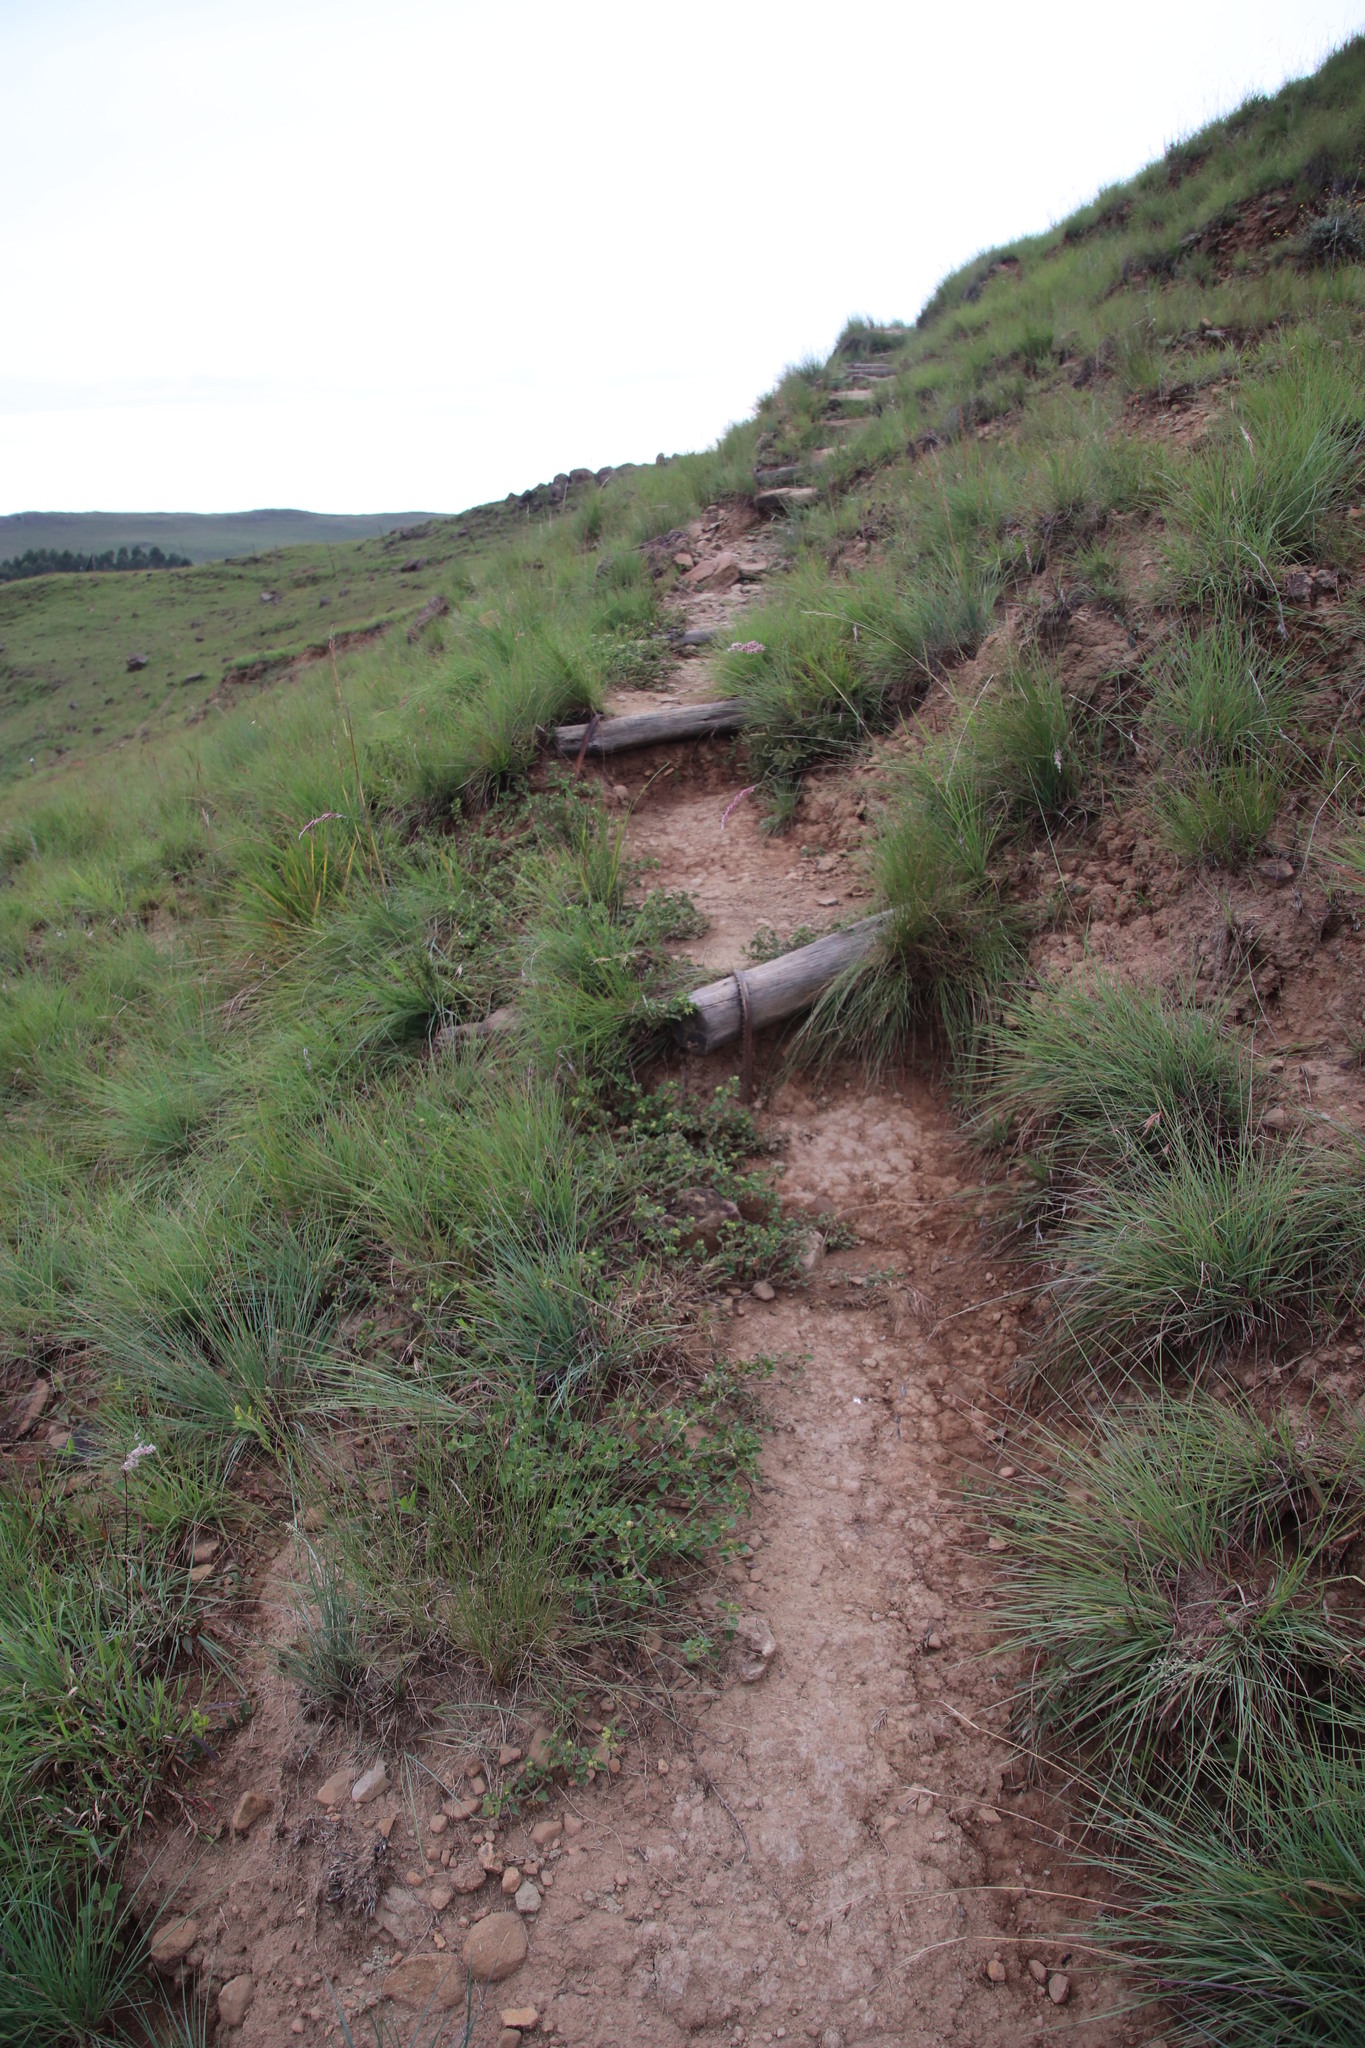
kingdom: Plantae
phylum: Tracheophyta
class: Magnoliopsida
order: Asterales
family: Asteraceae
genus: Acanthospermum
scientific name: Acanthospermum australe
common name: Paraguayan starbur
